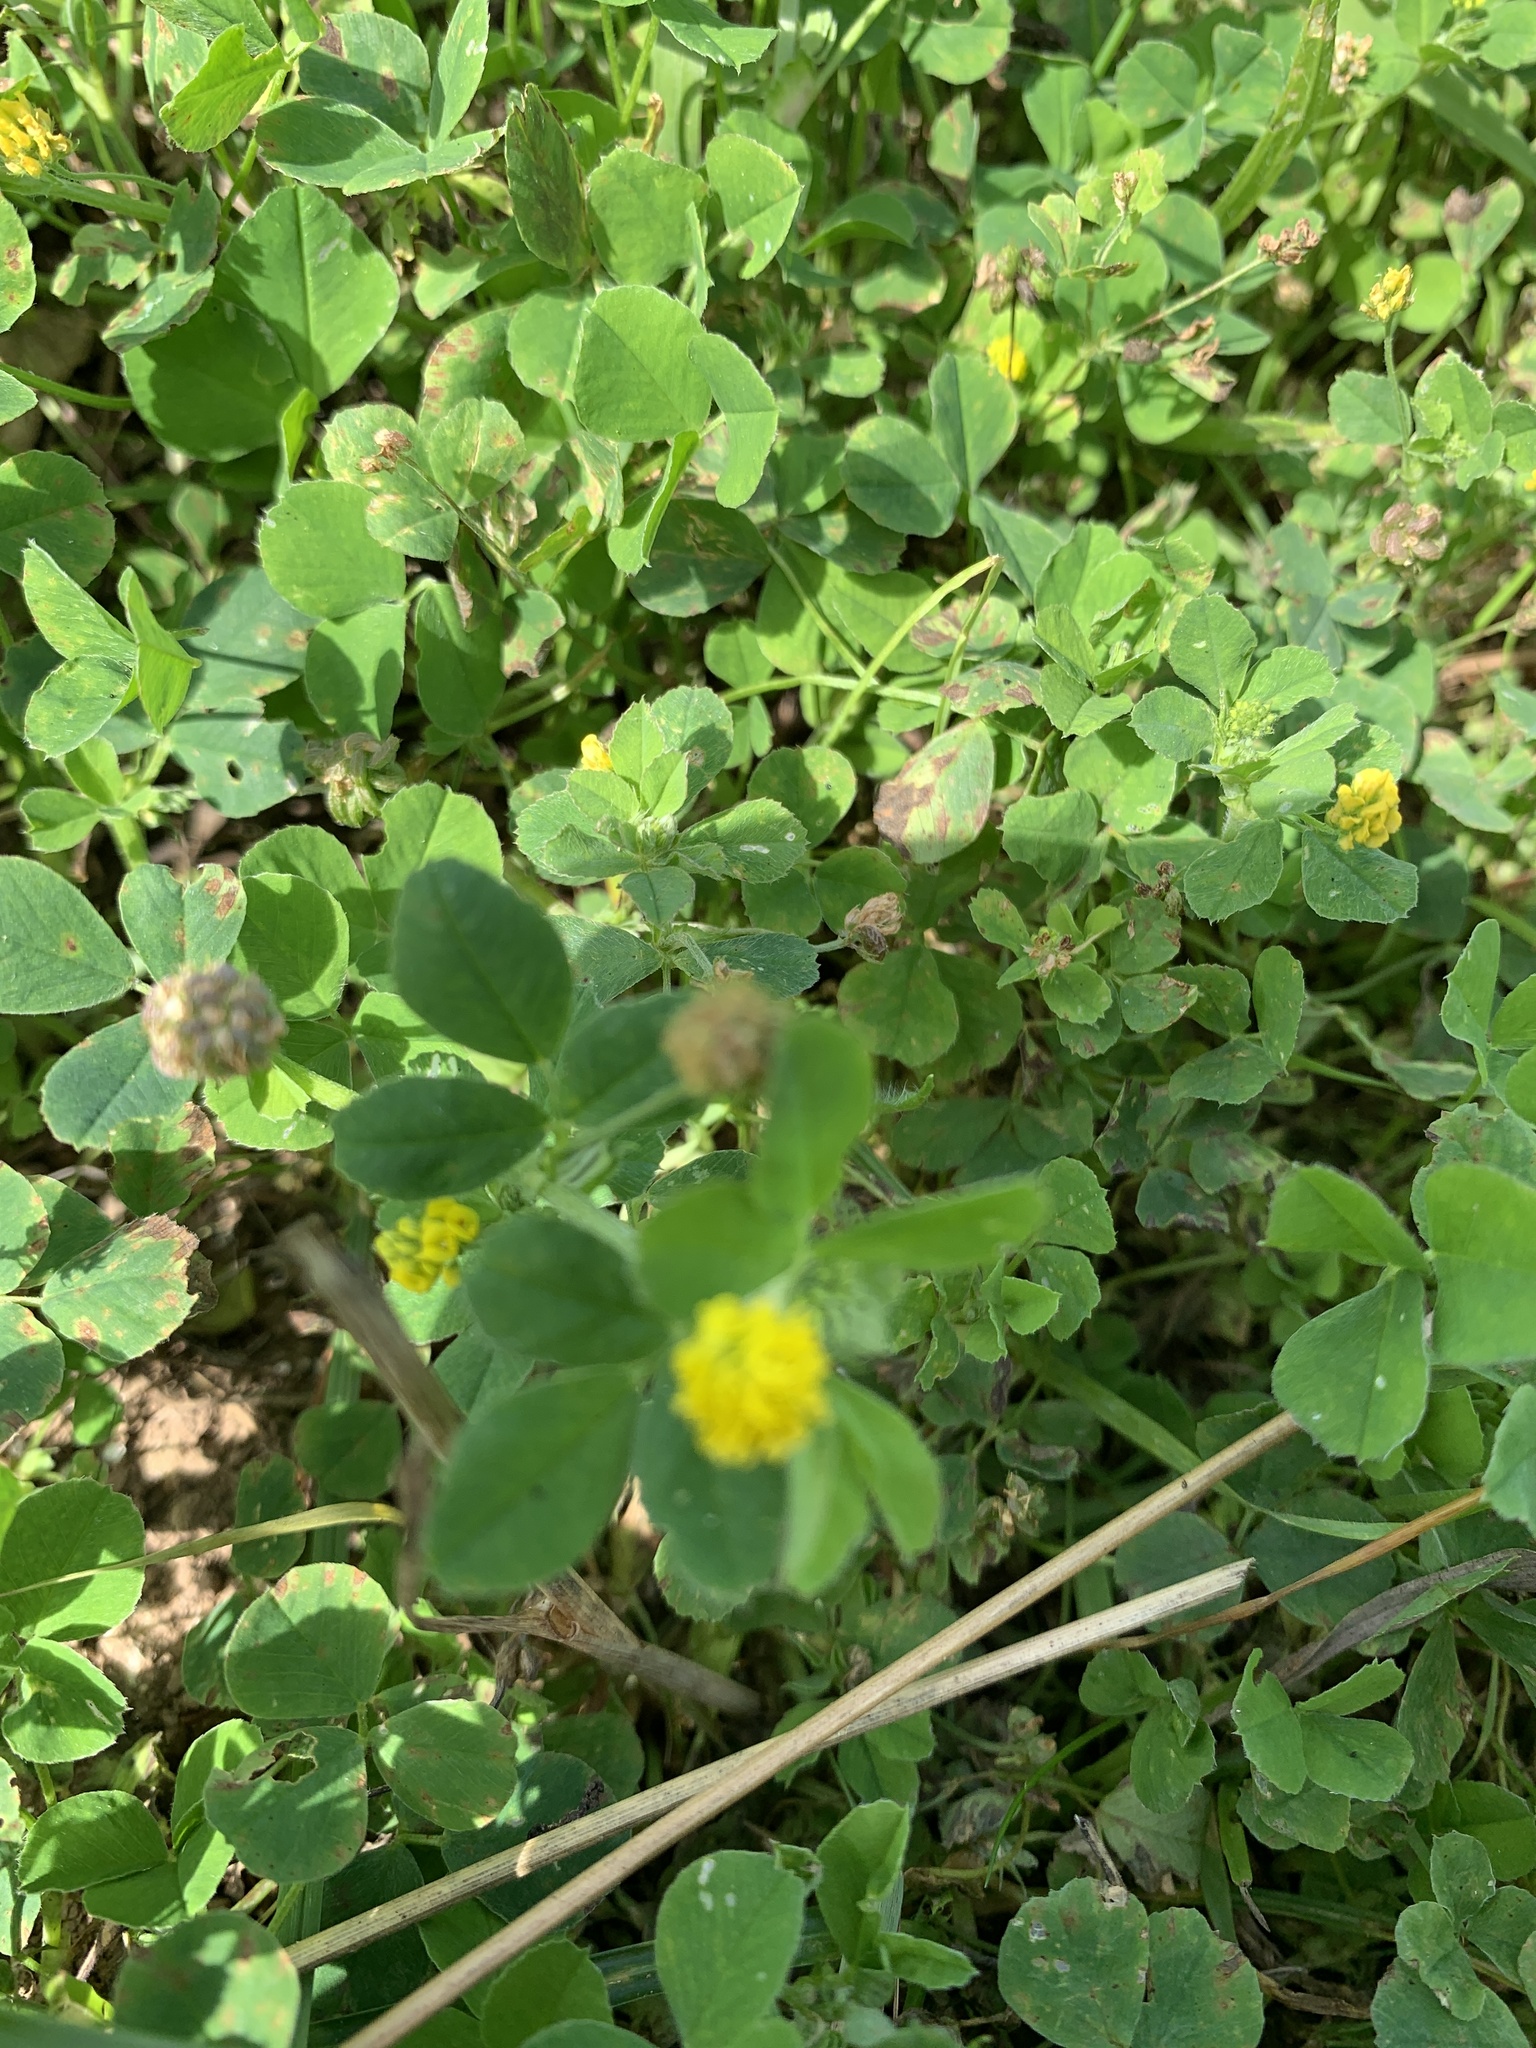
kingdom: Plantae
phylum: Tracheophyta
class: Magnoliopsida
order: Fabales
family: Fabaceae
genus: Medicago
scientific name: Medicago lupulina
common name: Black medick
